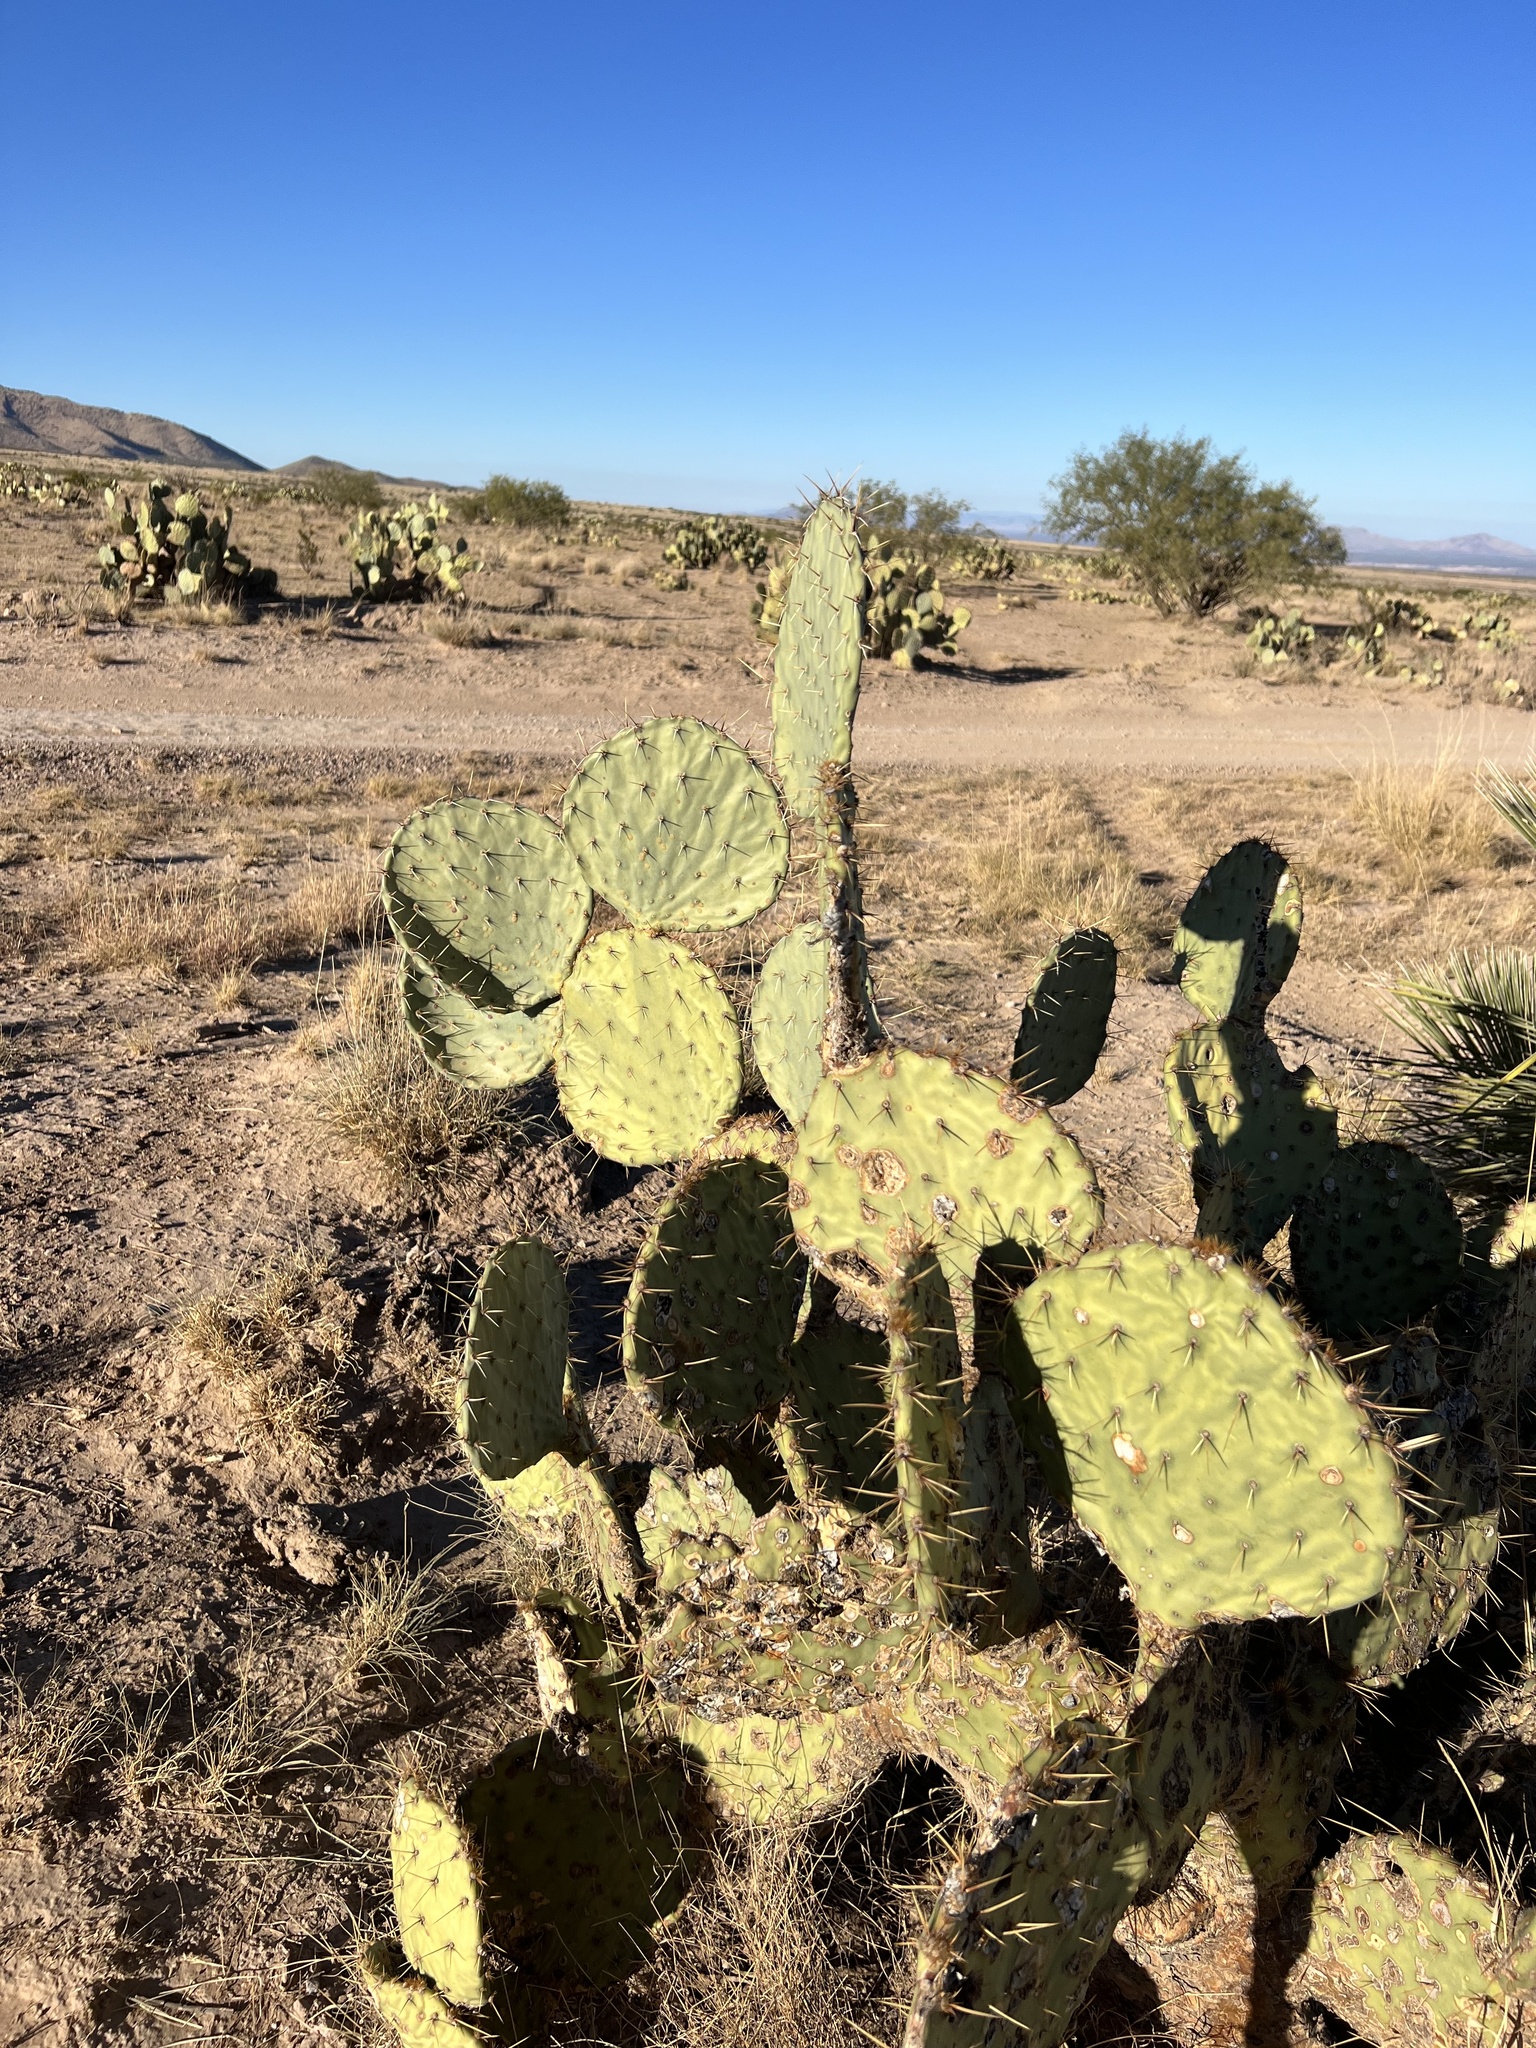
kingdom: Plantae
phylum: Tracheophyta
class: Magnoliopsida
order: Caryophyllales
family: Cactaceae
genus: Opuntia
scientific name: Opuntia engelmannii
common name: Cactus-apple
